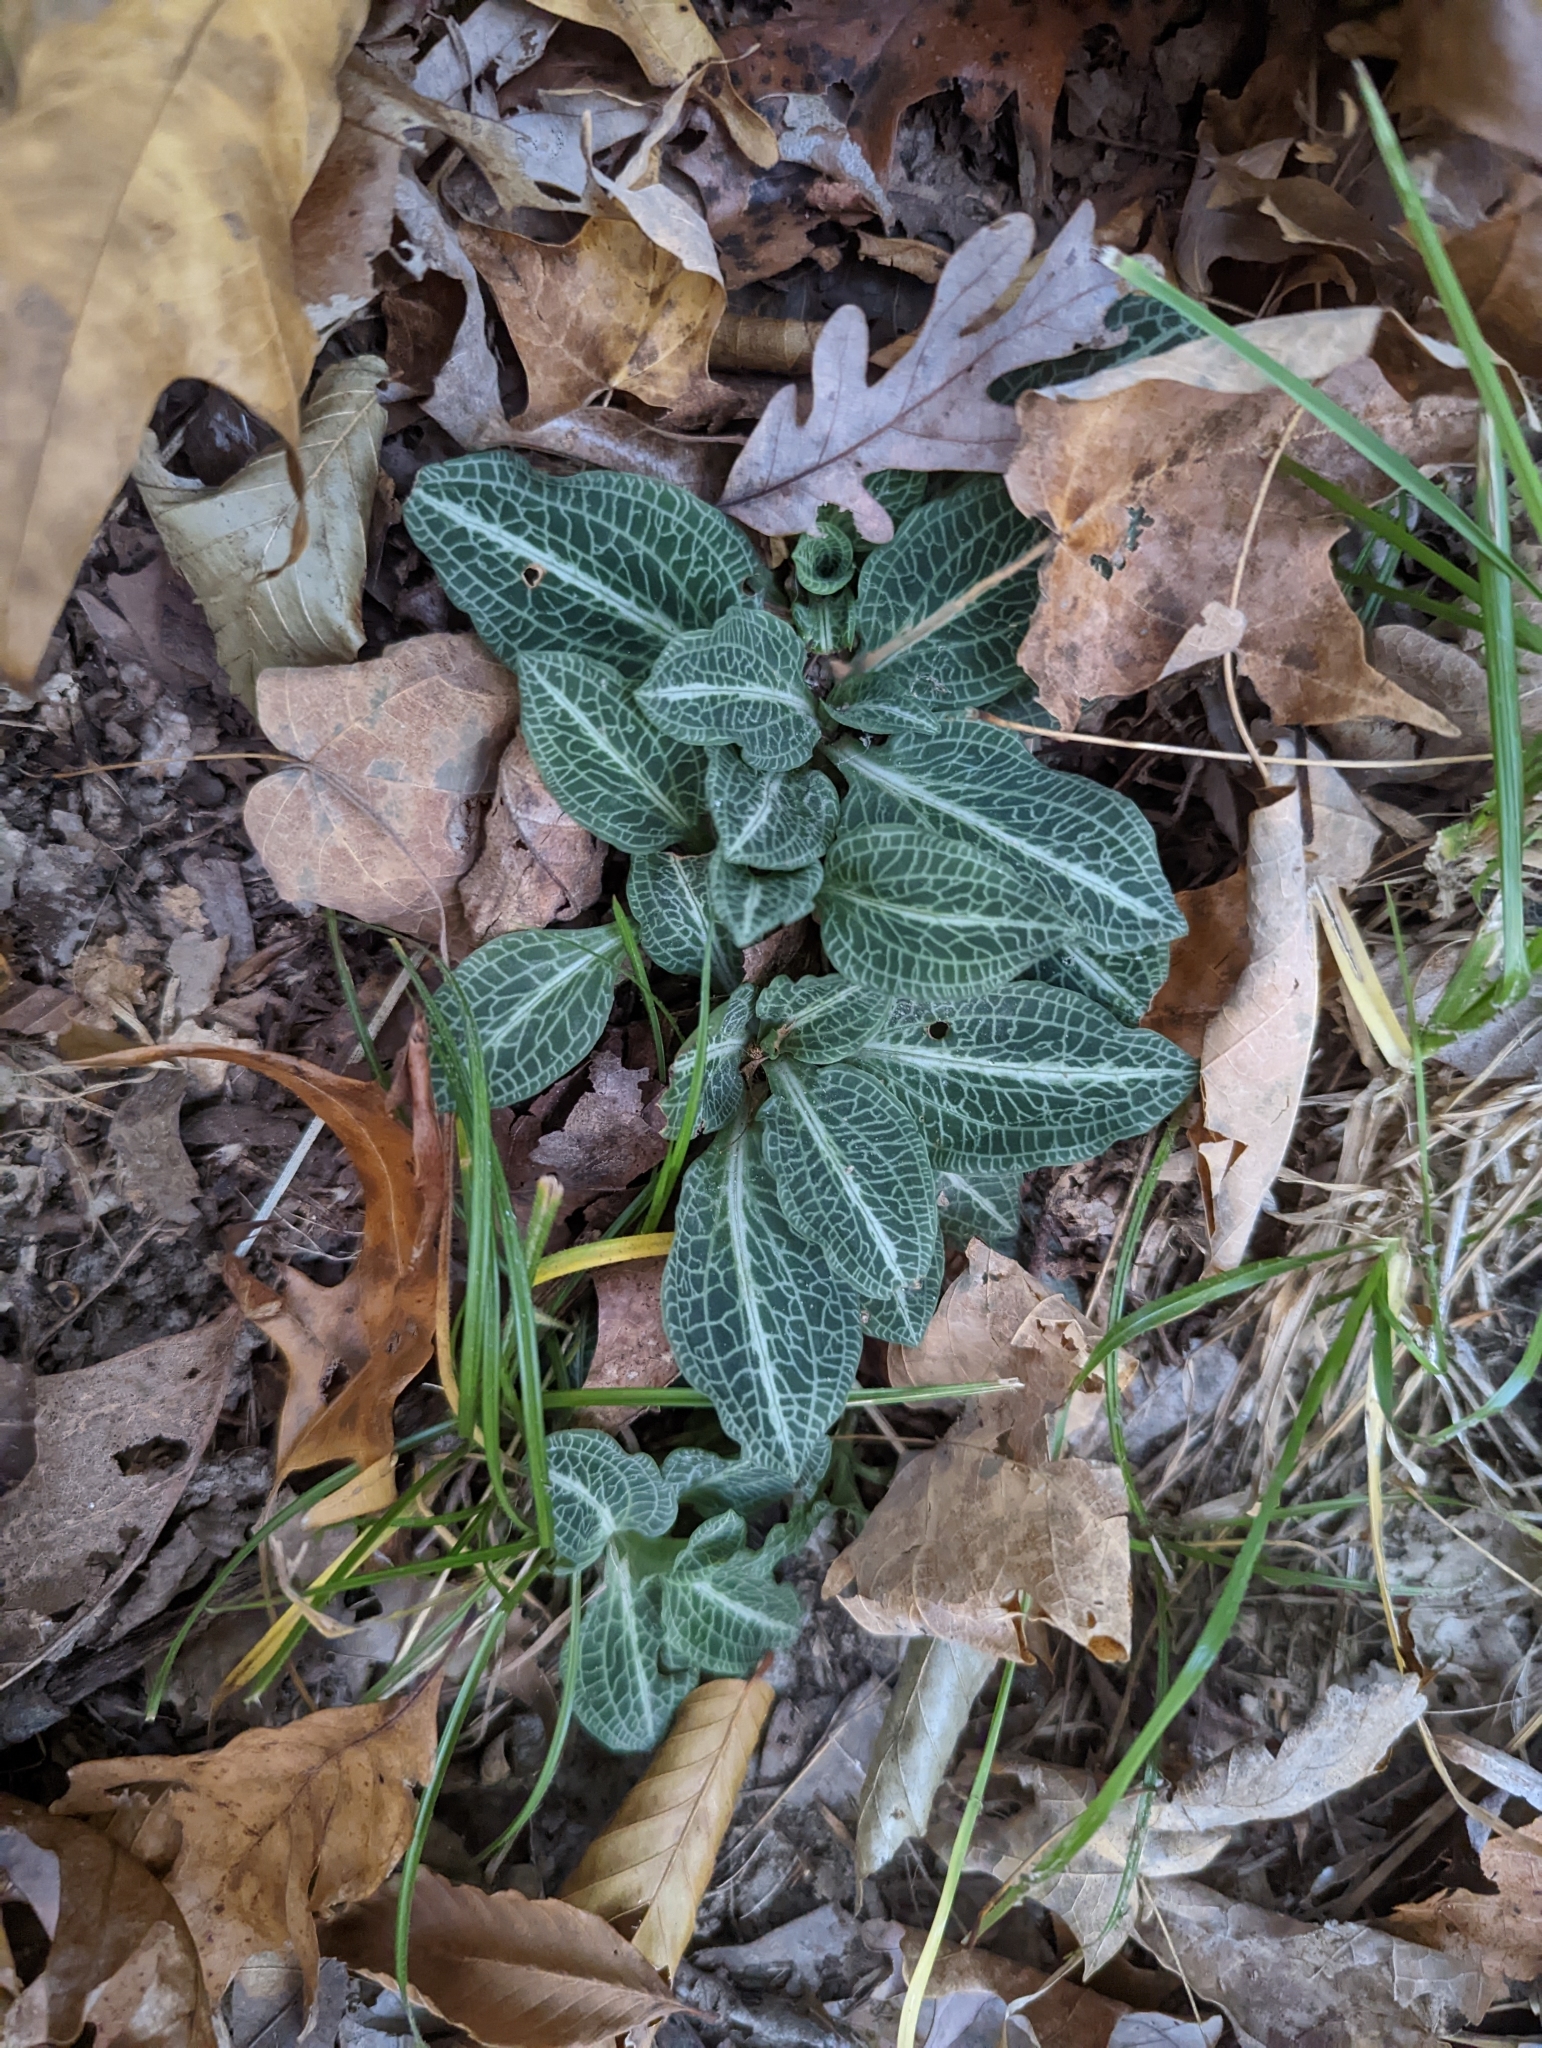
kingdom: Plantae
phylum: Tracheophyta
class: Liliopsida
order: Asparagales
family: Orchidaceae
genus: Goodyera
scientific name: Goodyera pubescens
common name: Downy rattlesnake-plantain
